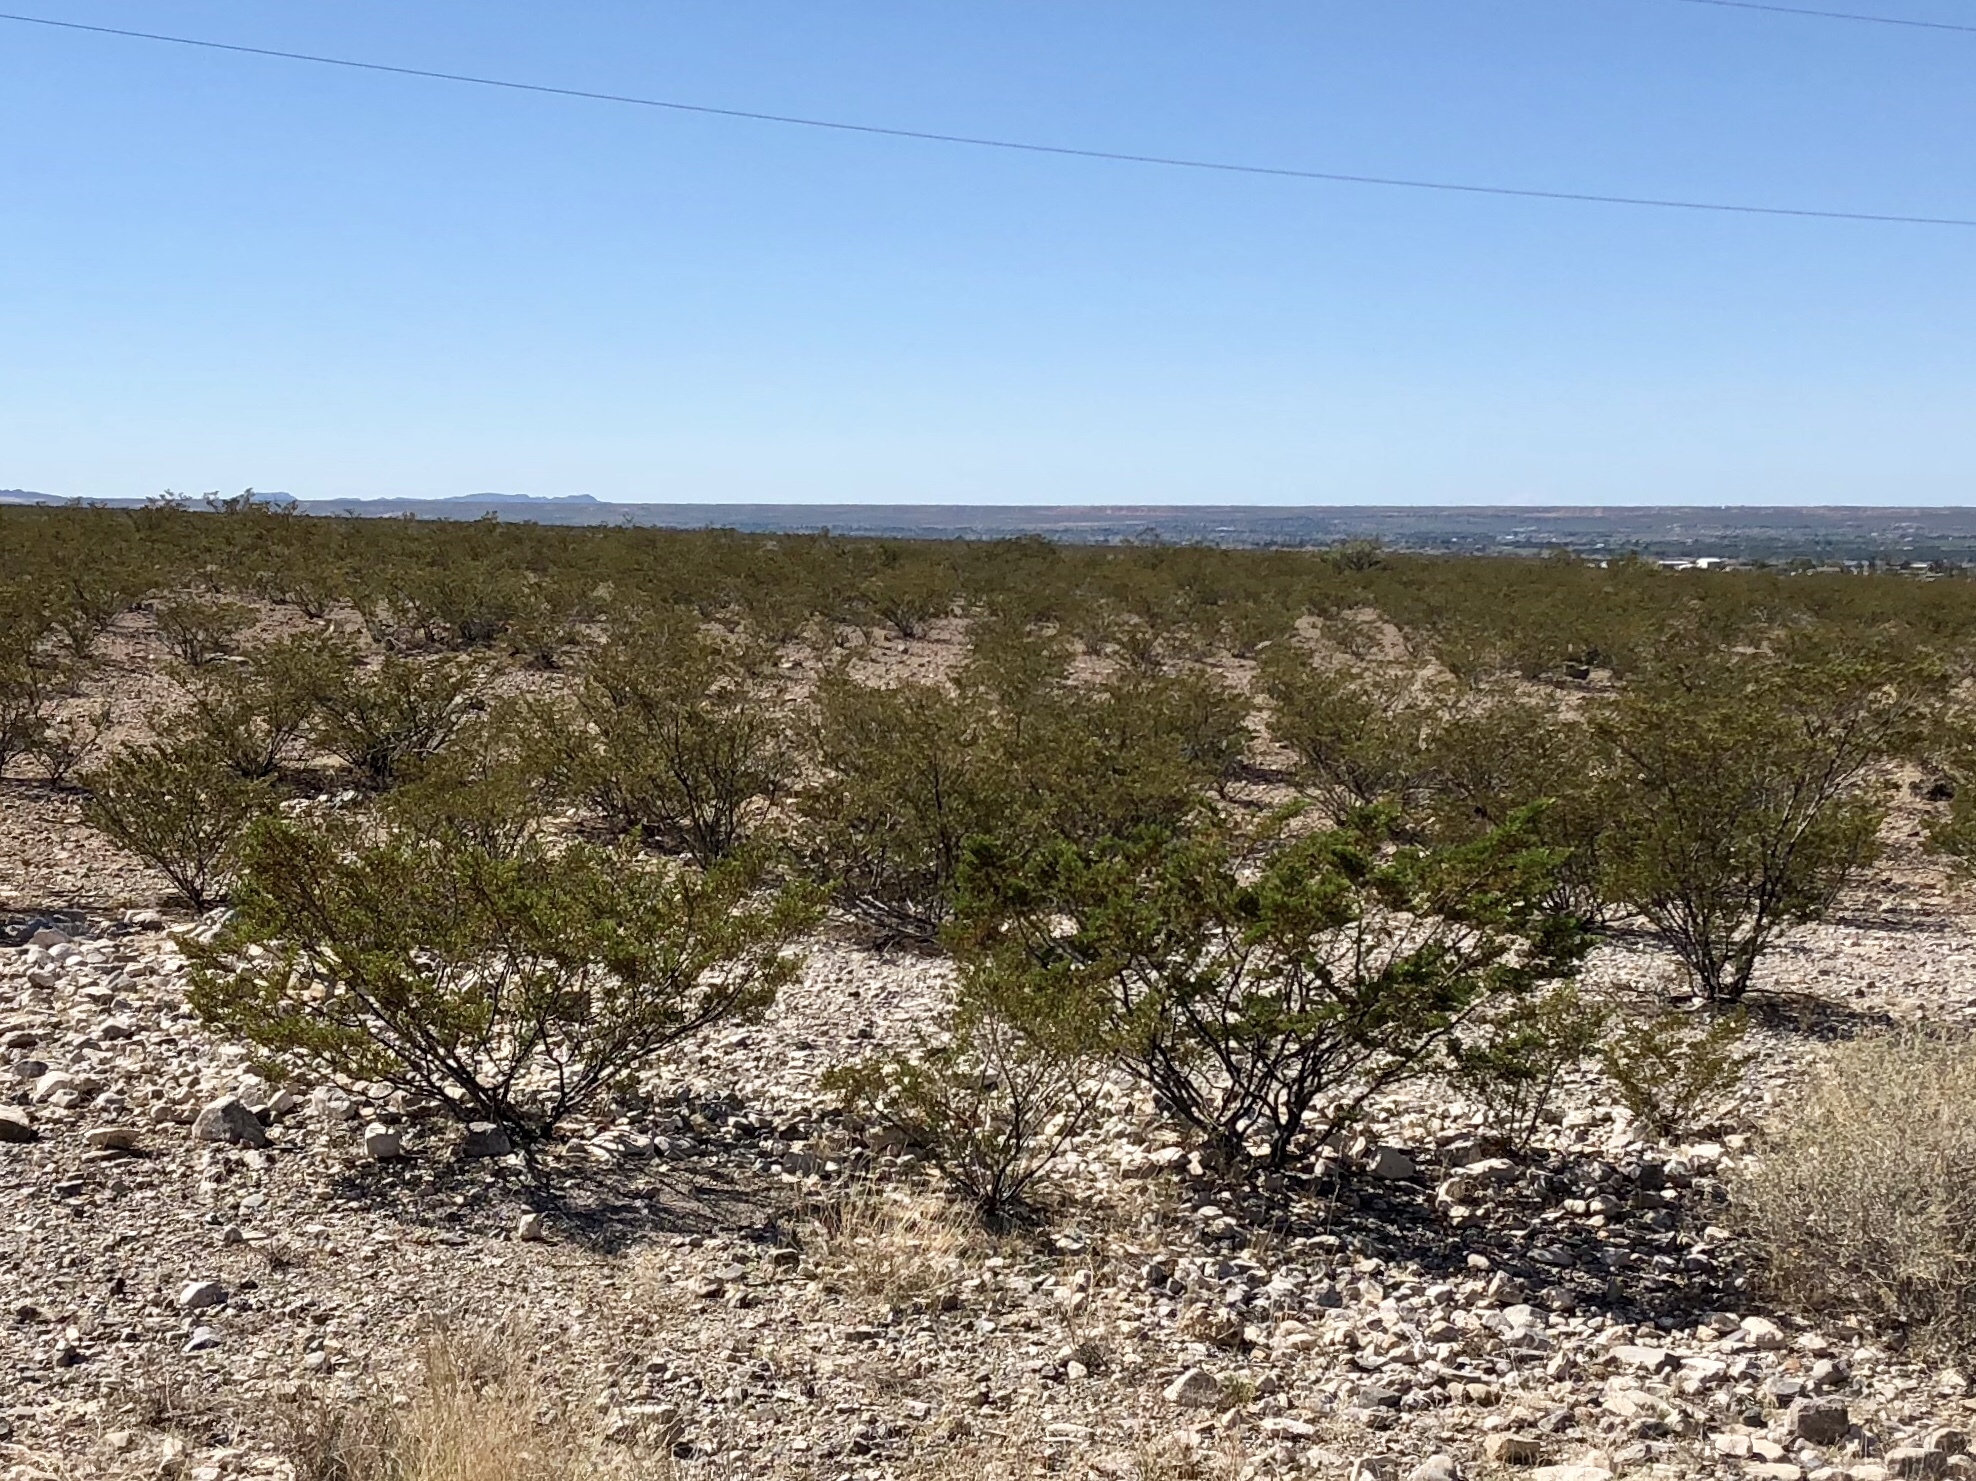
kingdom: Plantae
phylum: Tracheophyta
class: Magnoliopsida
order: Zygophyllales
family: Zygophyllaceae
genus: Larrea
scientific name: Larrea tridentata
